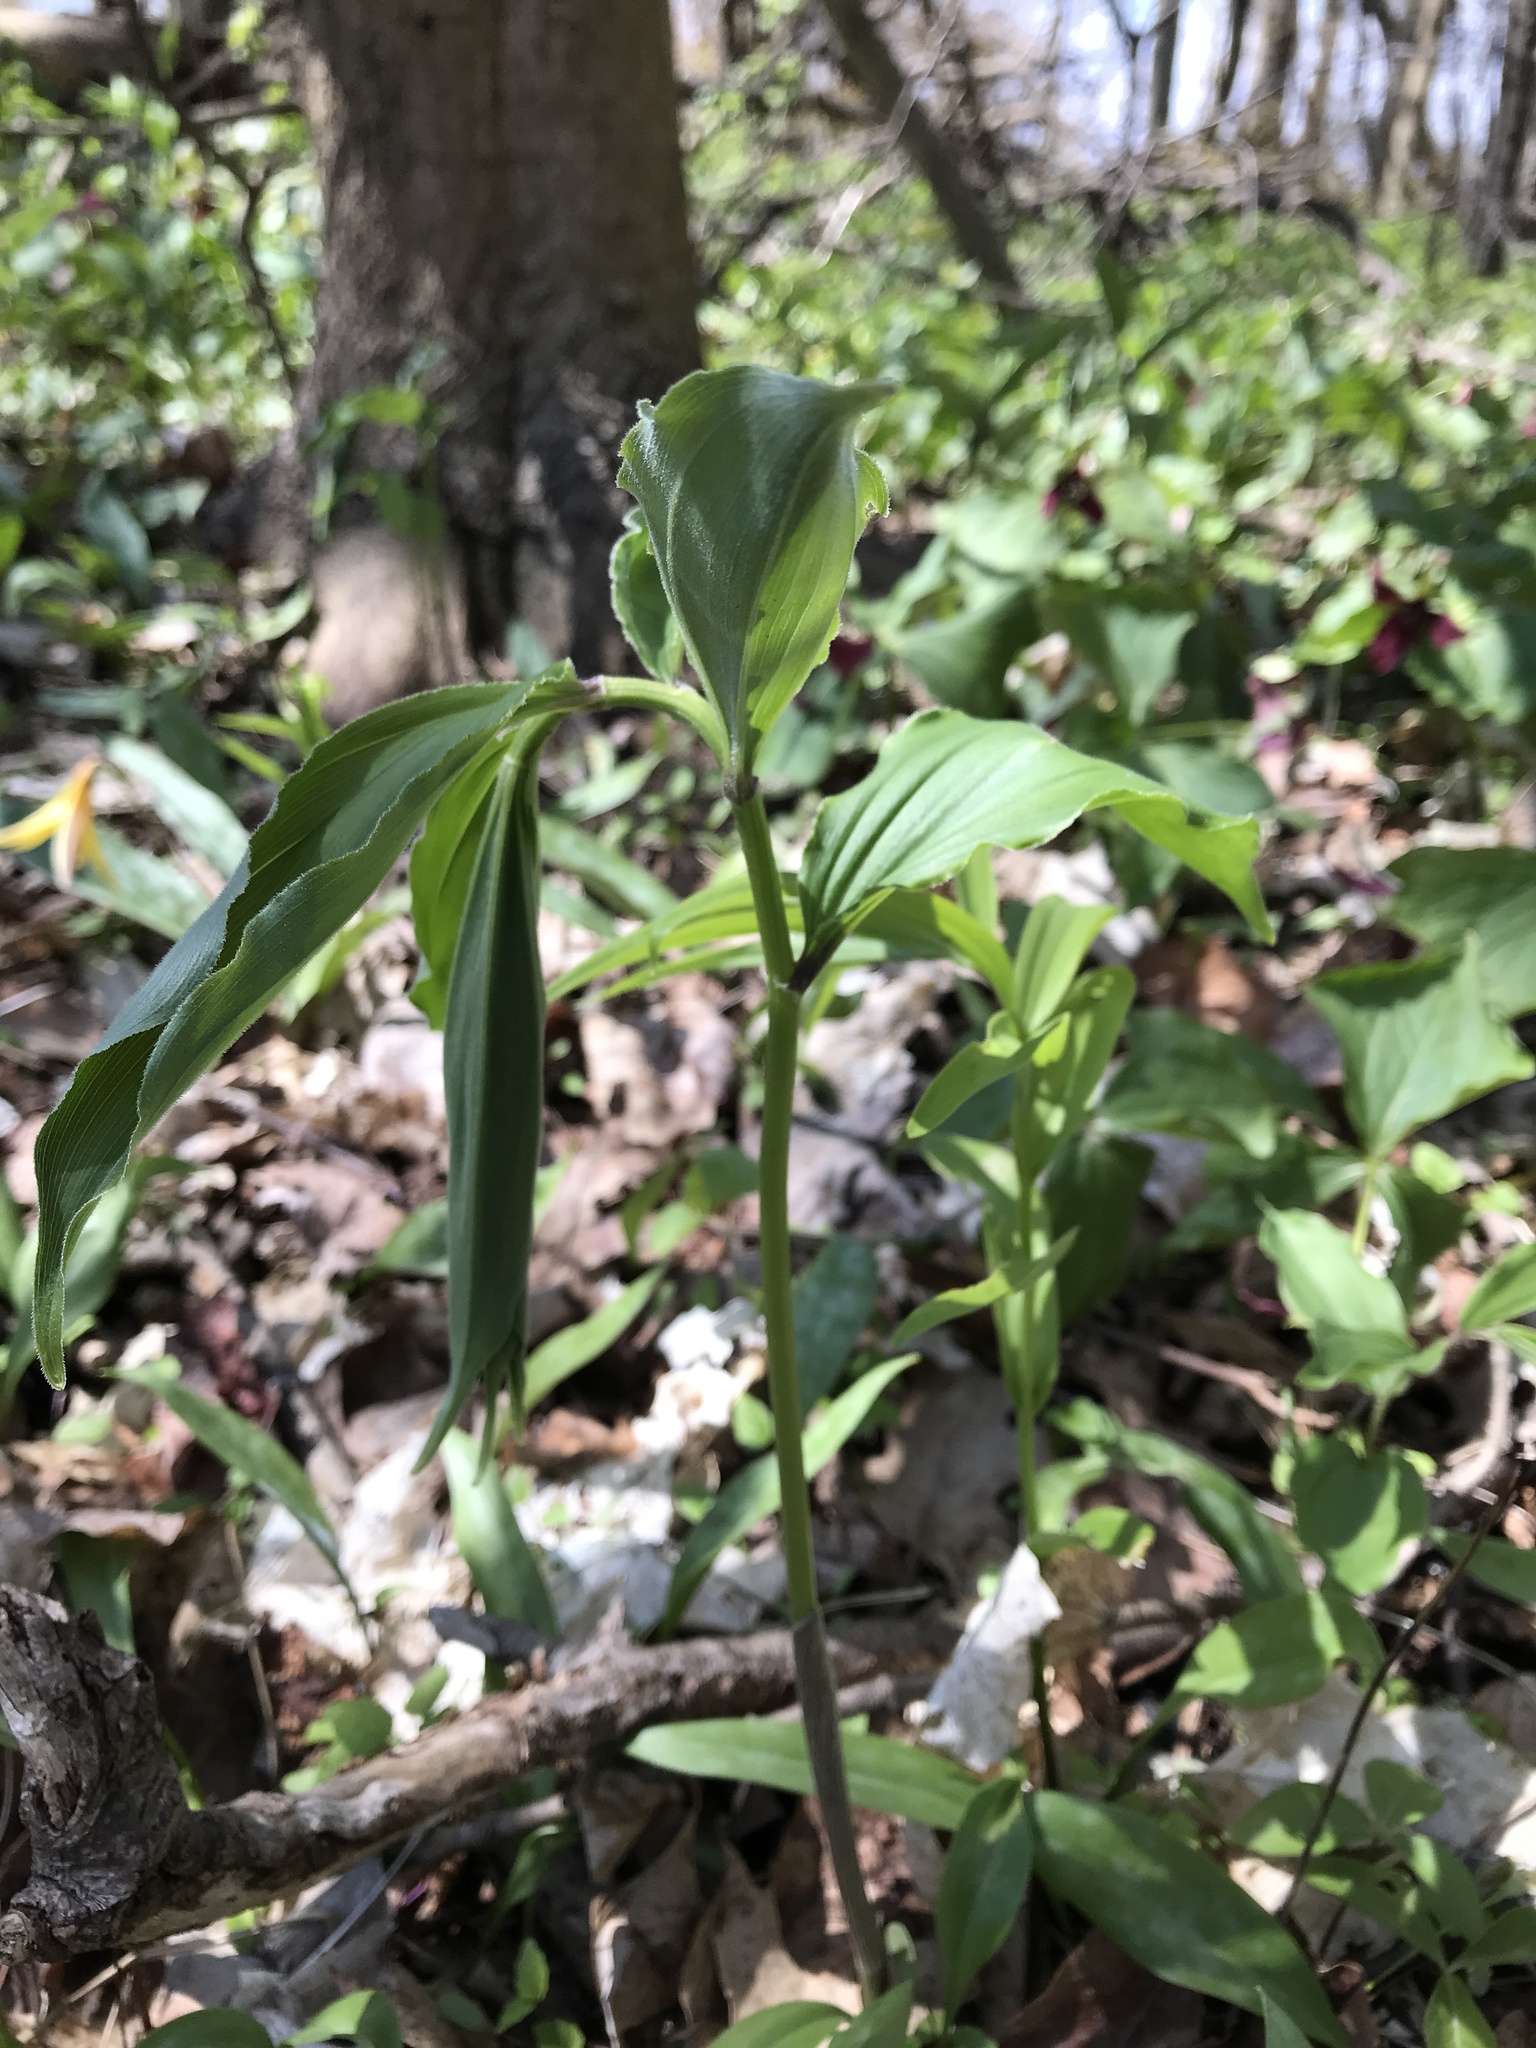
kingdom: Plantae
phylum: Tracheophyta
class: Liliopsida
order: Asparagales
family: Asparagaceae
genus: Maianthemum
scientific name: Maianthemum racemosum
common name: False spikenard
